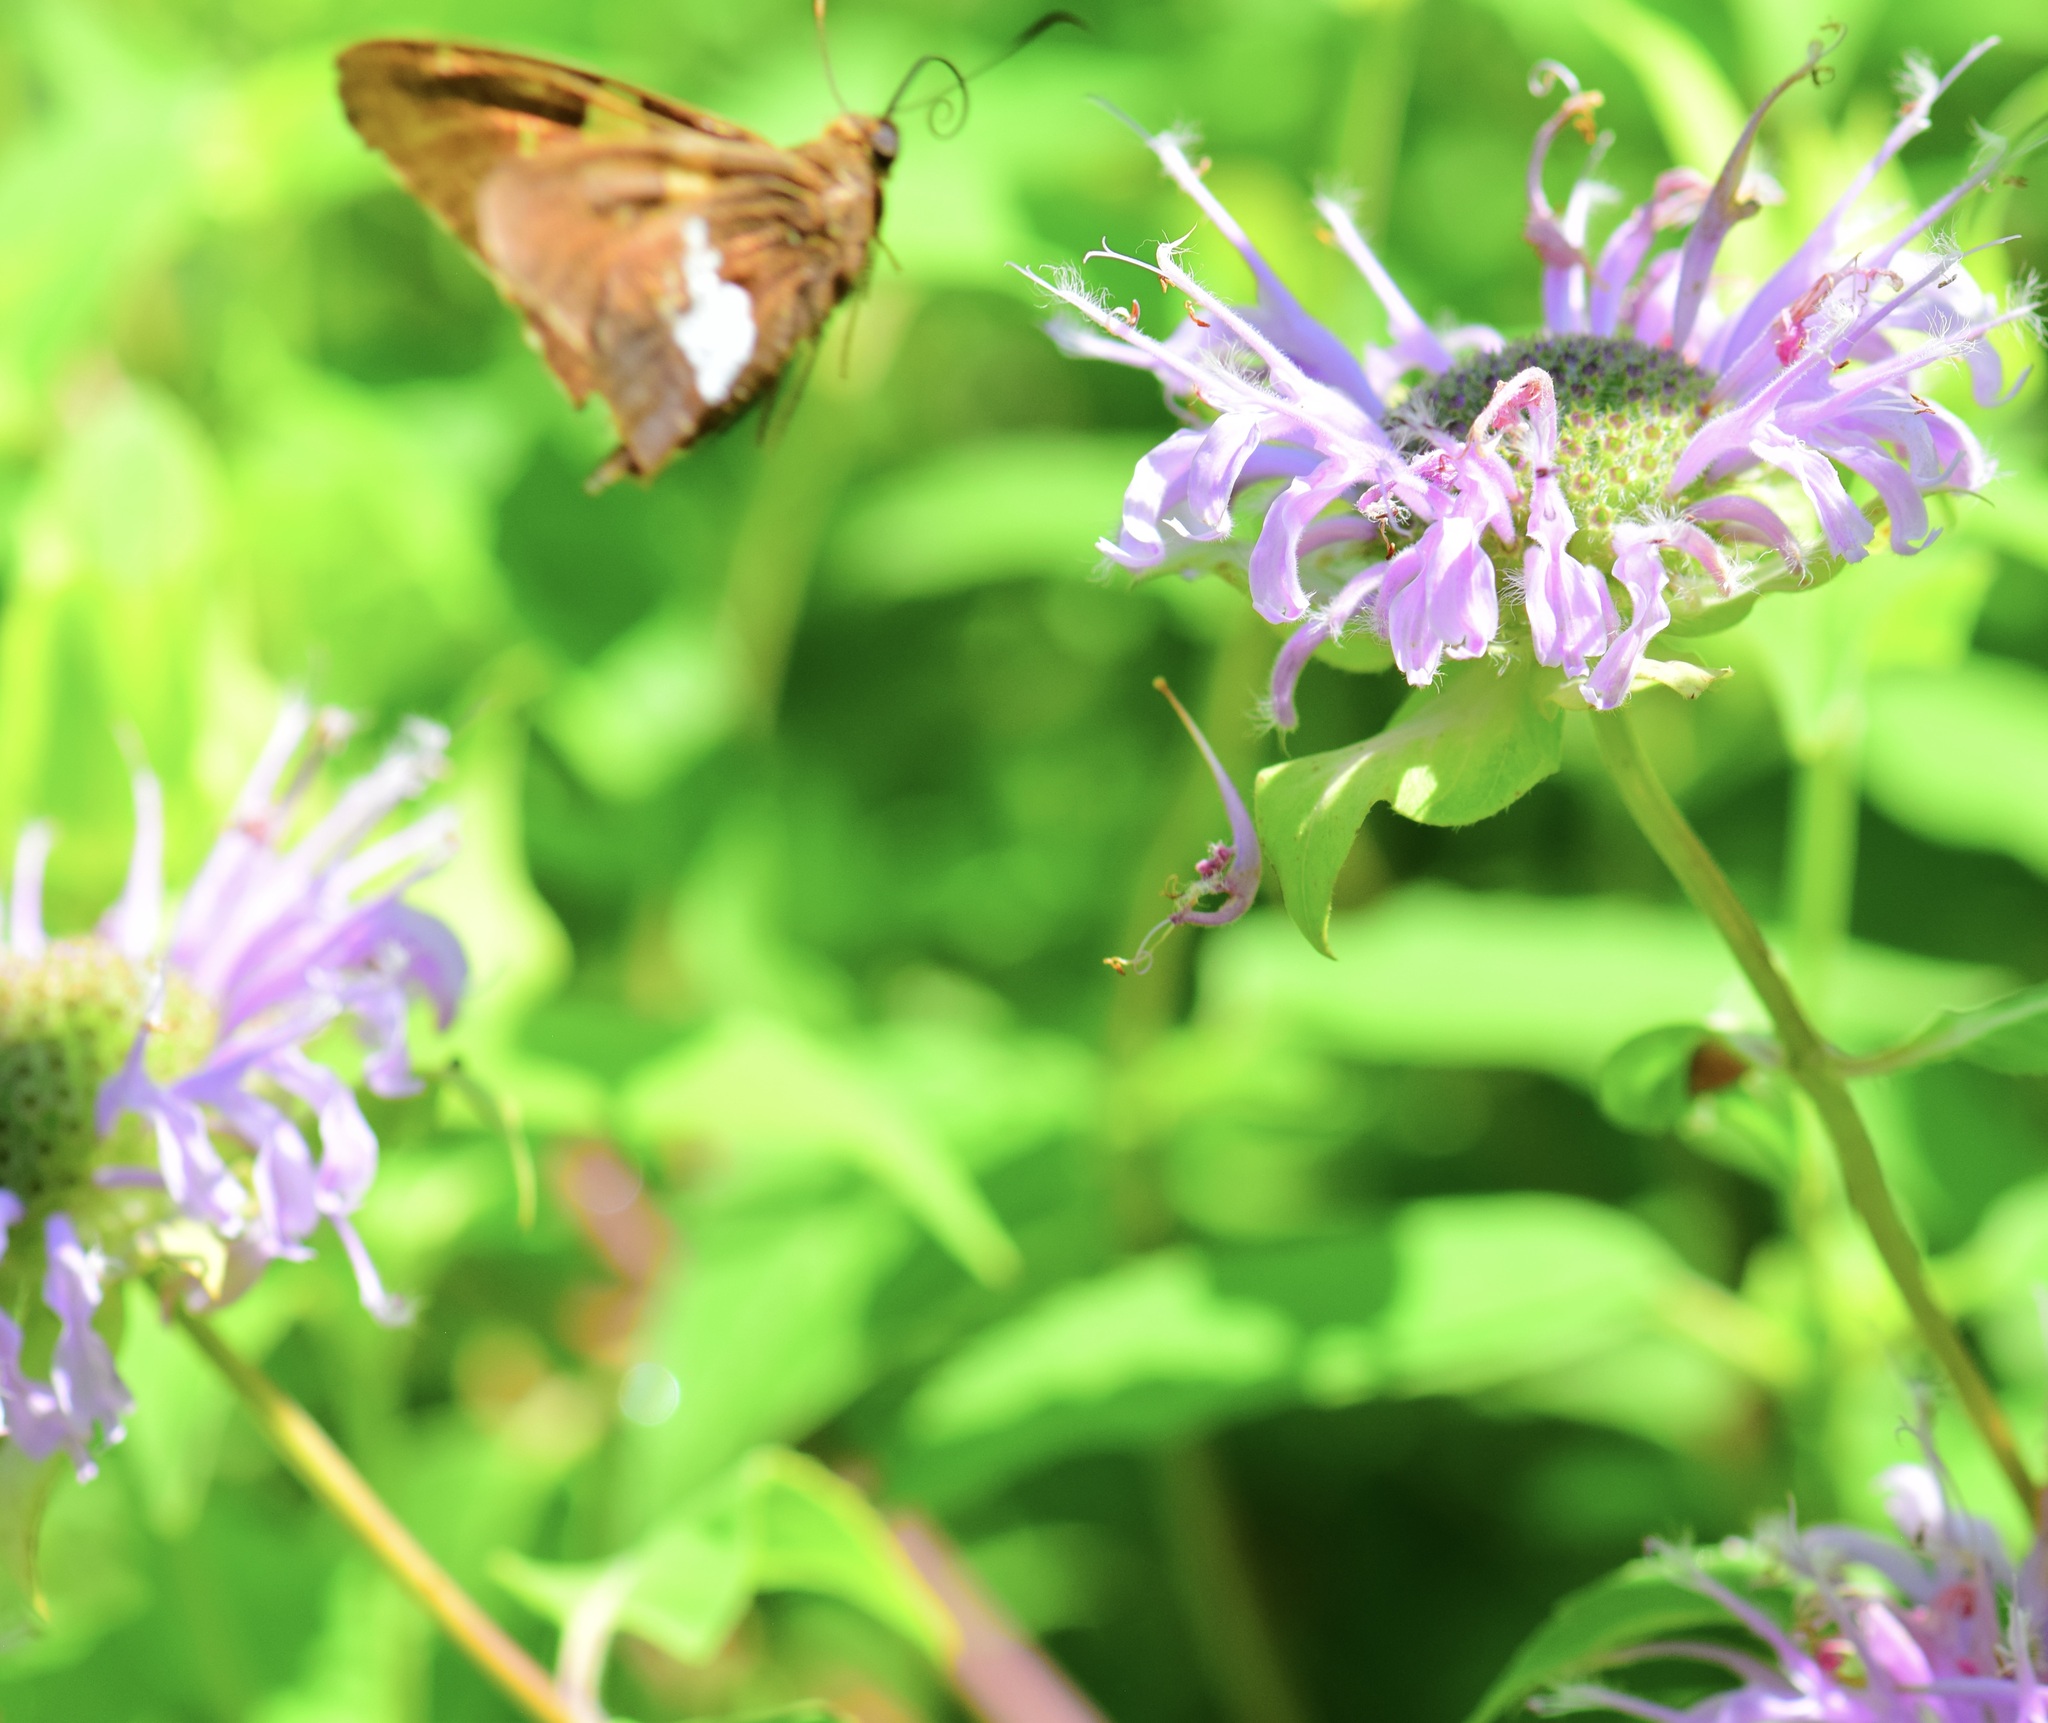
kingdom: Animalia
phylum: Arthropoda
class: Insecta
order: Lepidoptera
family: Hesperiidae
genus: Epargyreus
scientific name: Epargyreus clarus
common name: Silver-spotted skipper
